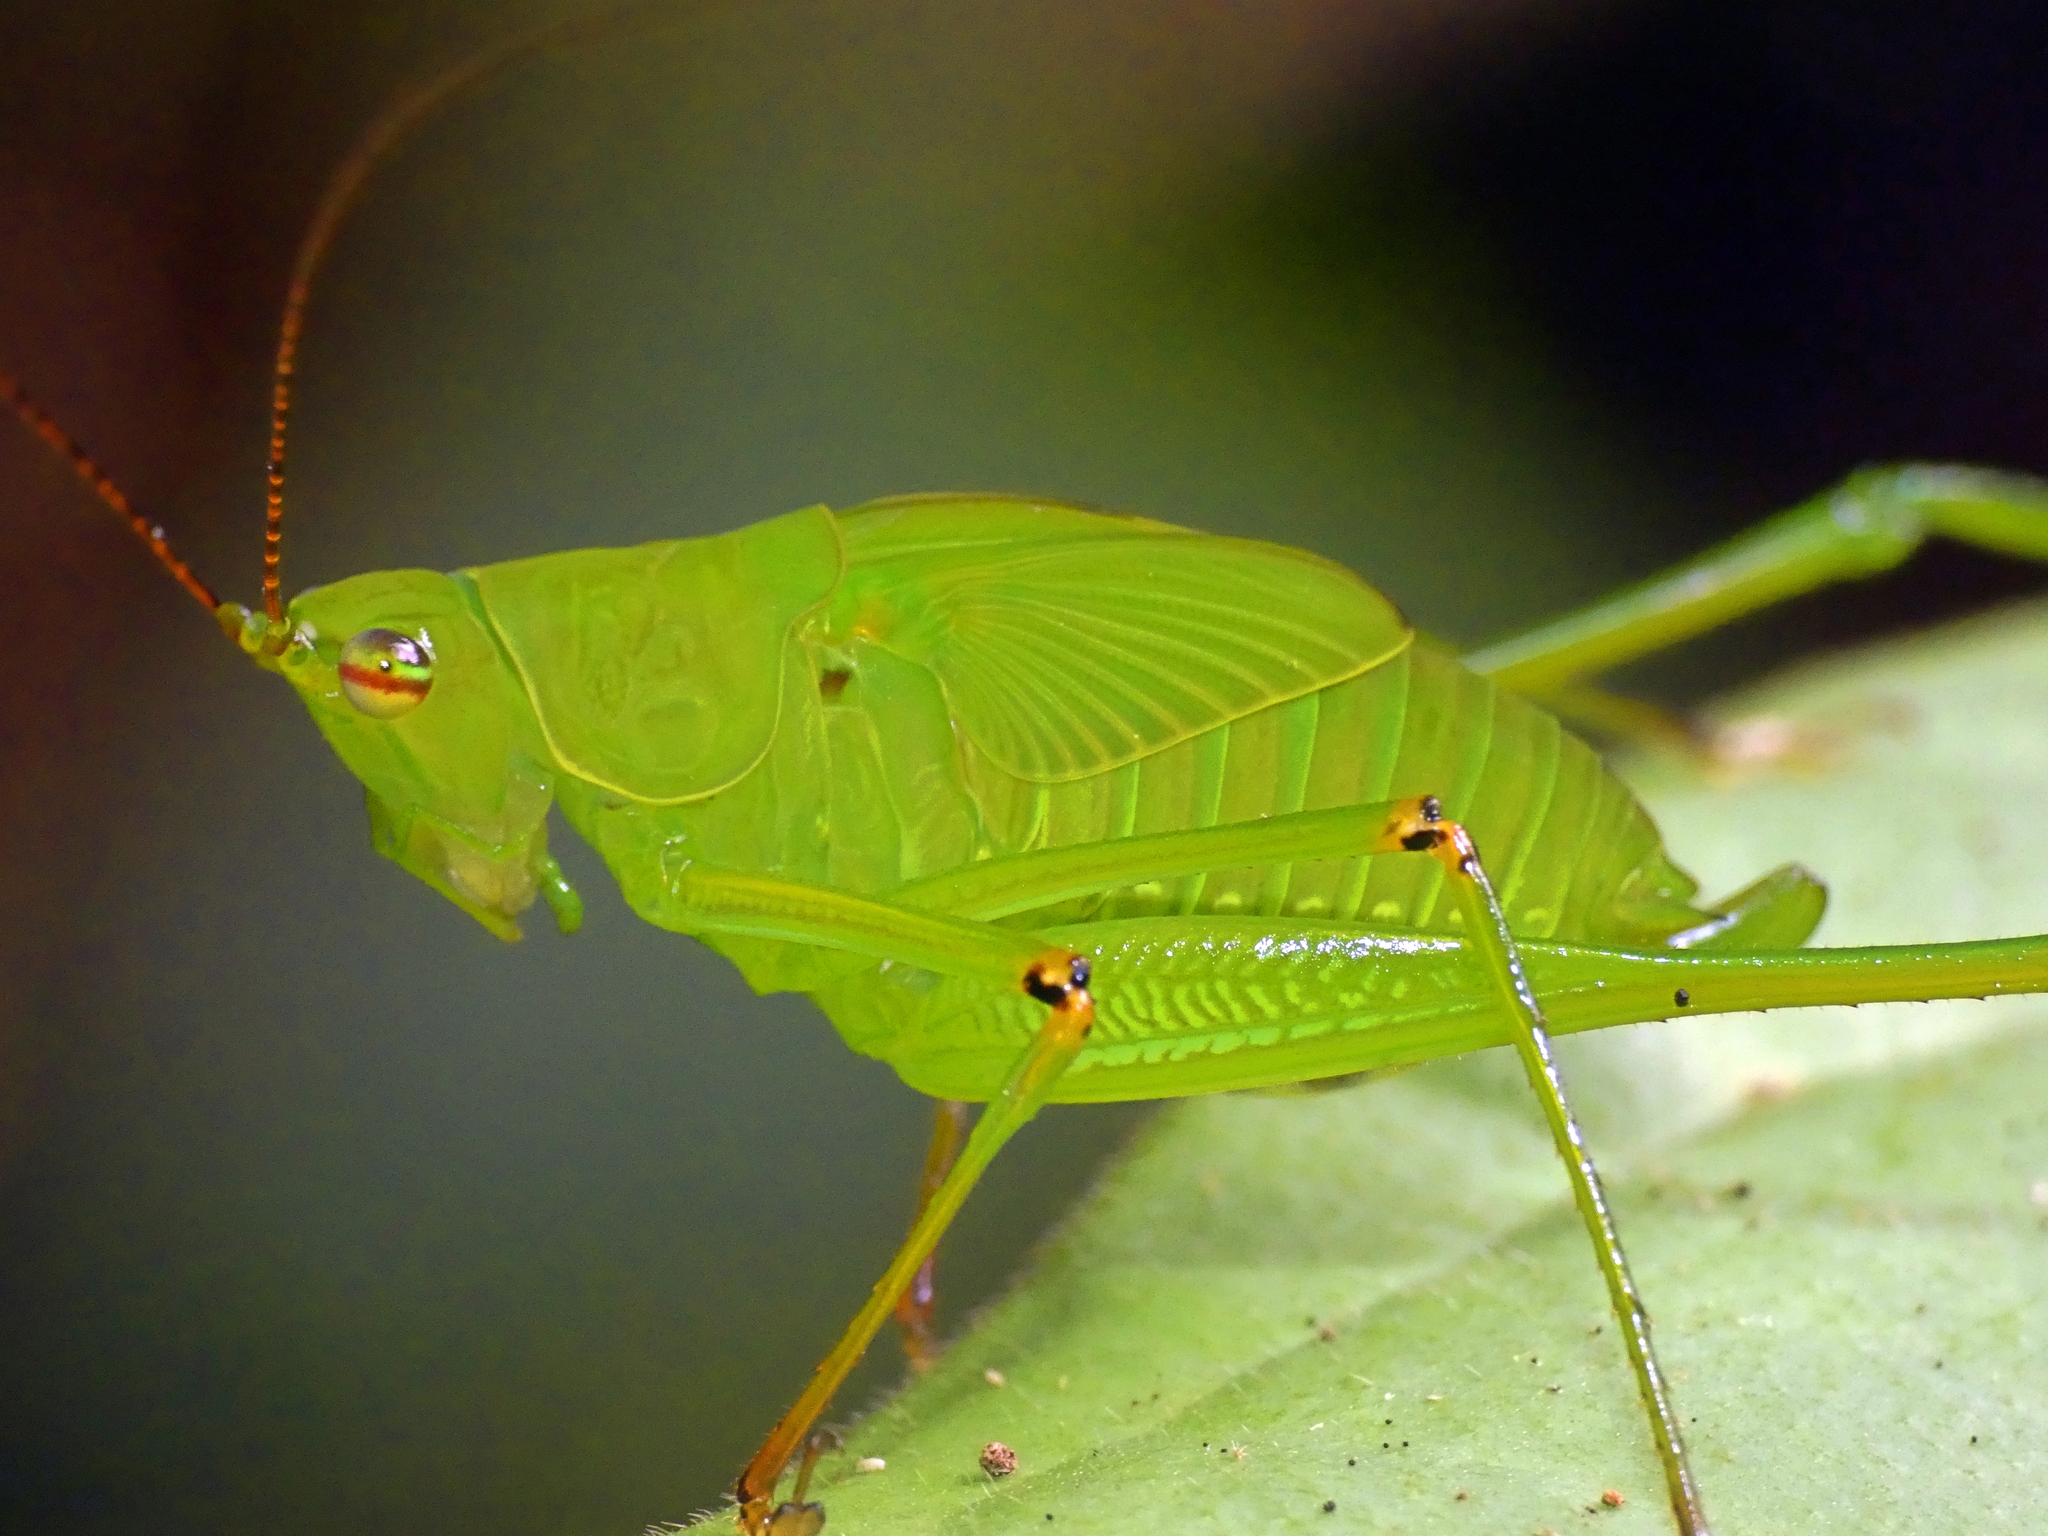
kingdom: Animalia
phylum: Arthropoda
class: Insecta
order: Orthoptera
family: Tettigoniidae
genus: Leucopodoptera
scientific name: Leucopodoptera eumundii
